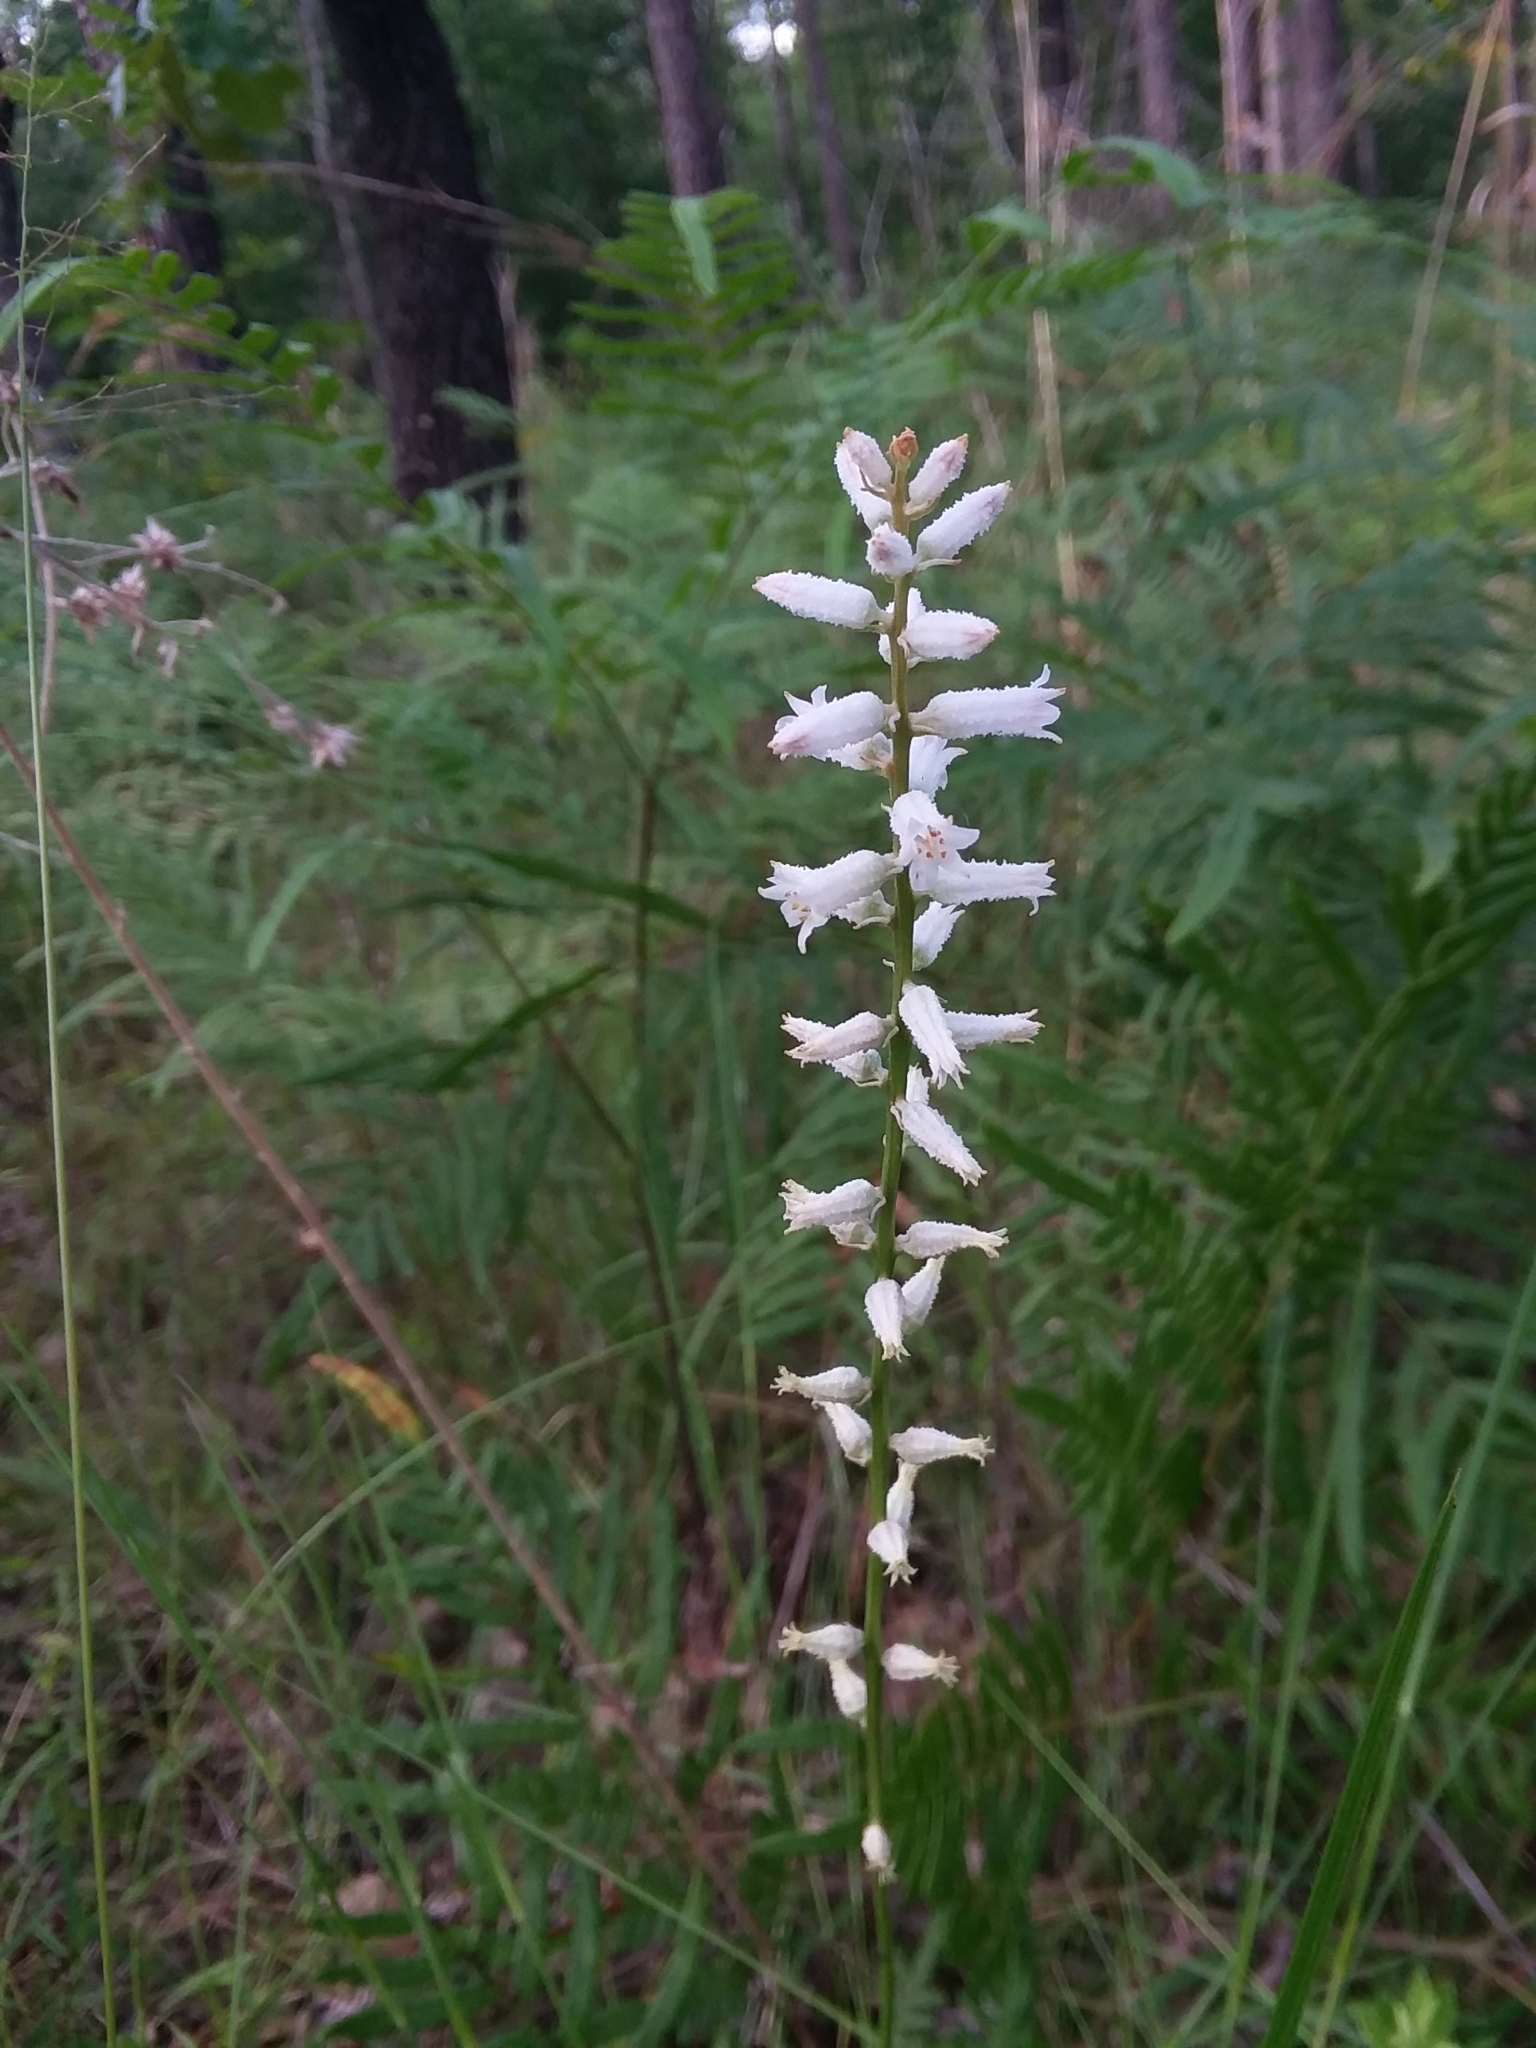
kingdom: Plantae
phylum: Tracheophyta
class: Liliopsida
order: Dioscoreales
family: Nartheciaceae
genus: Aletris
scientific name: Aletris farinosa
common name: Colicroot
